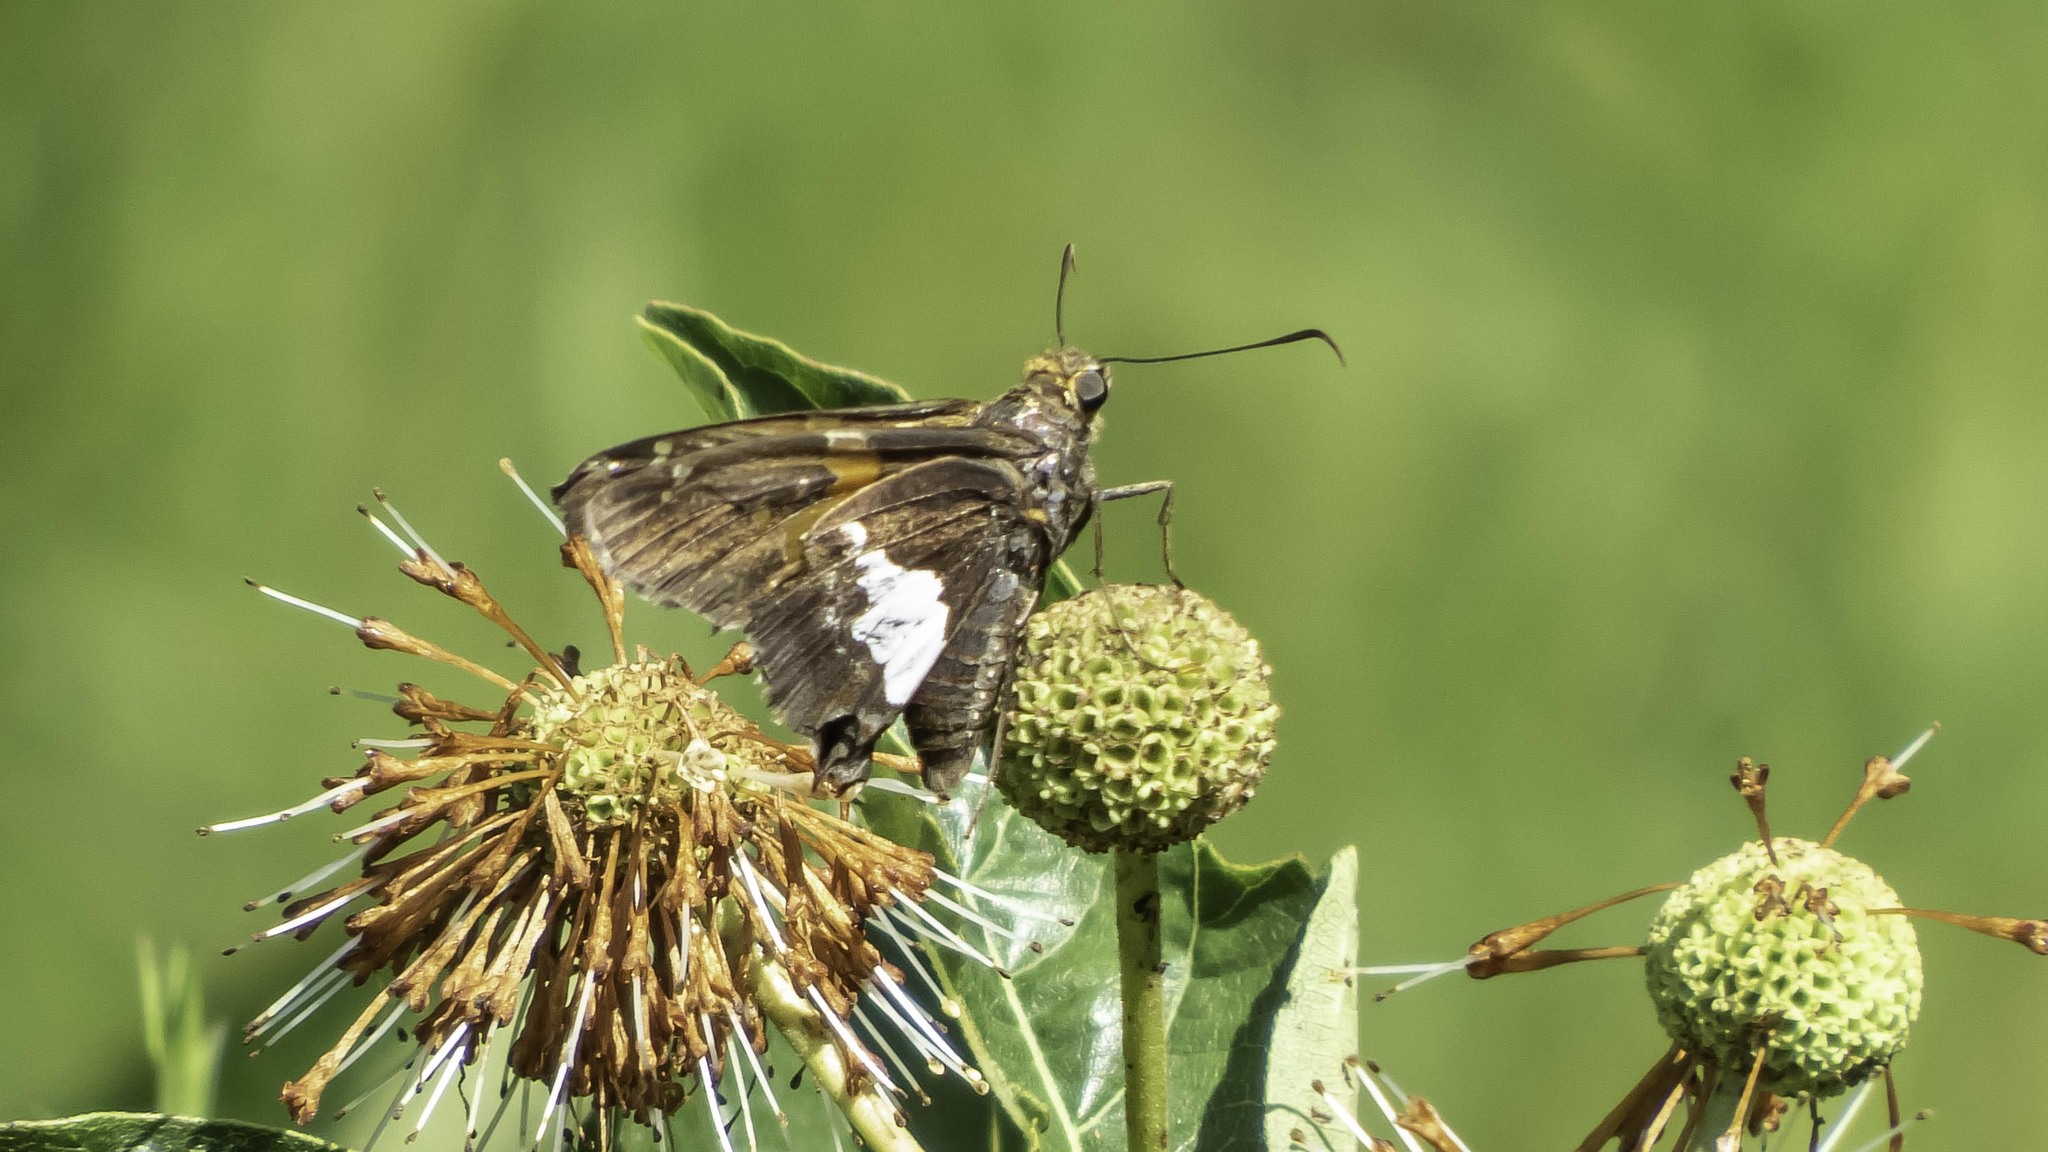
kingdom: Animalia
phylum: Arthropoda
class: Insecta
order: Lepidoptera
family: Hesperiidae
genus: Epargyreus
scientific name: Epargyreus clarus
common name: Silver-spotted skipper
